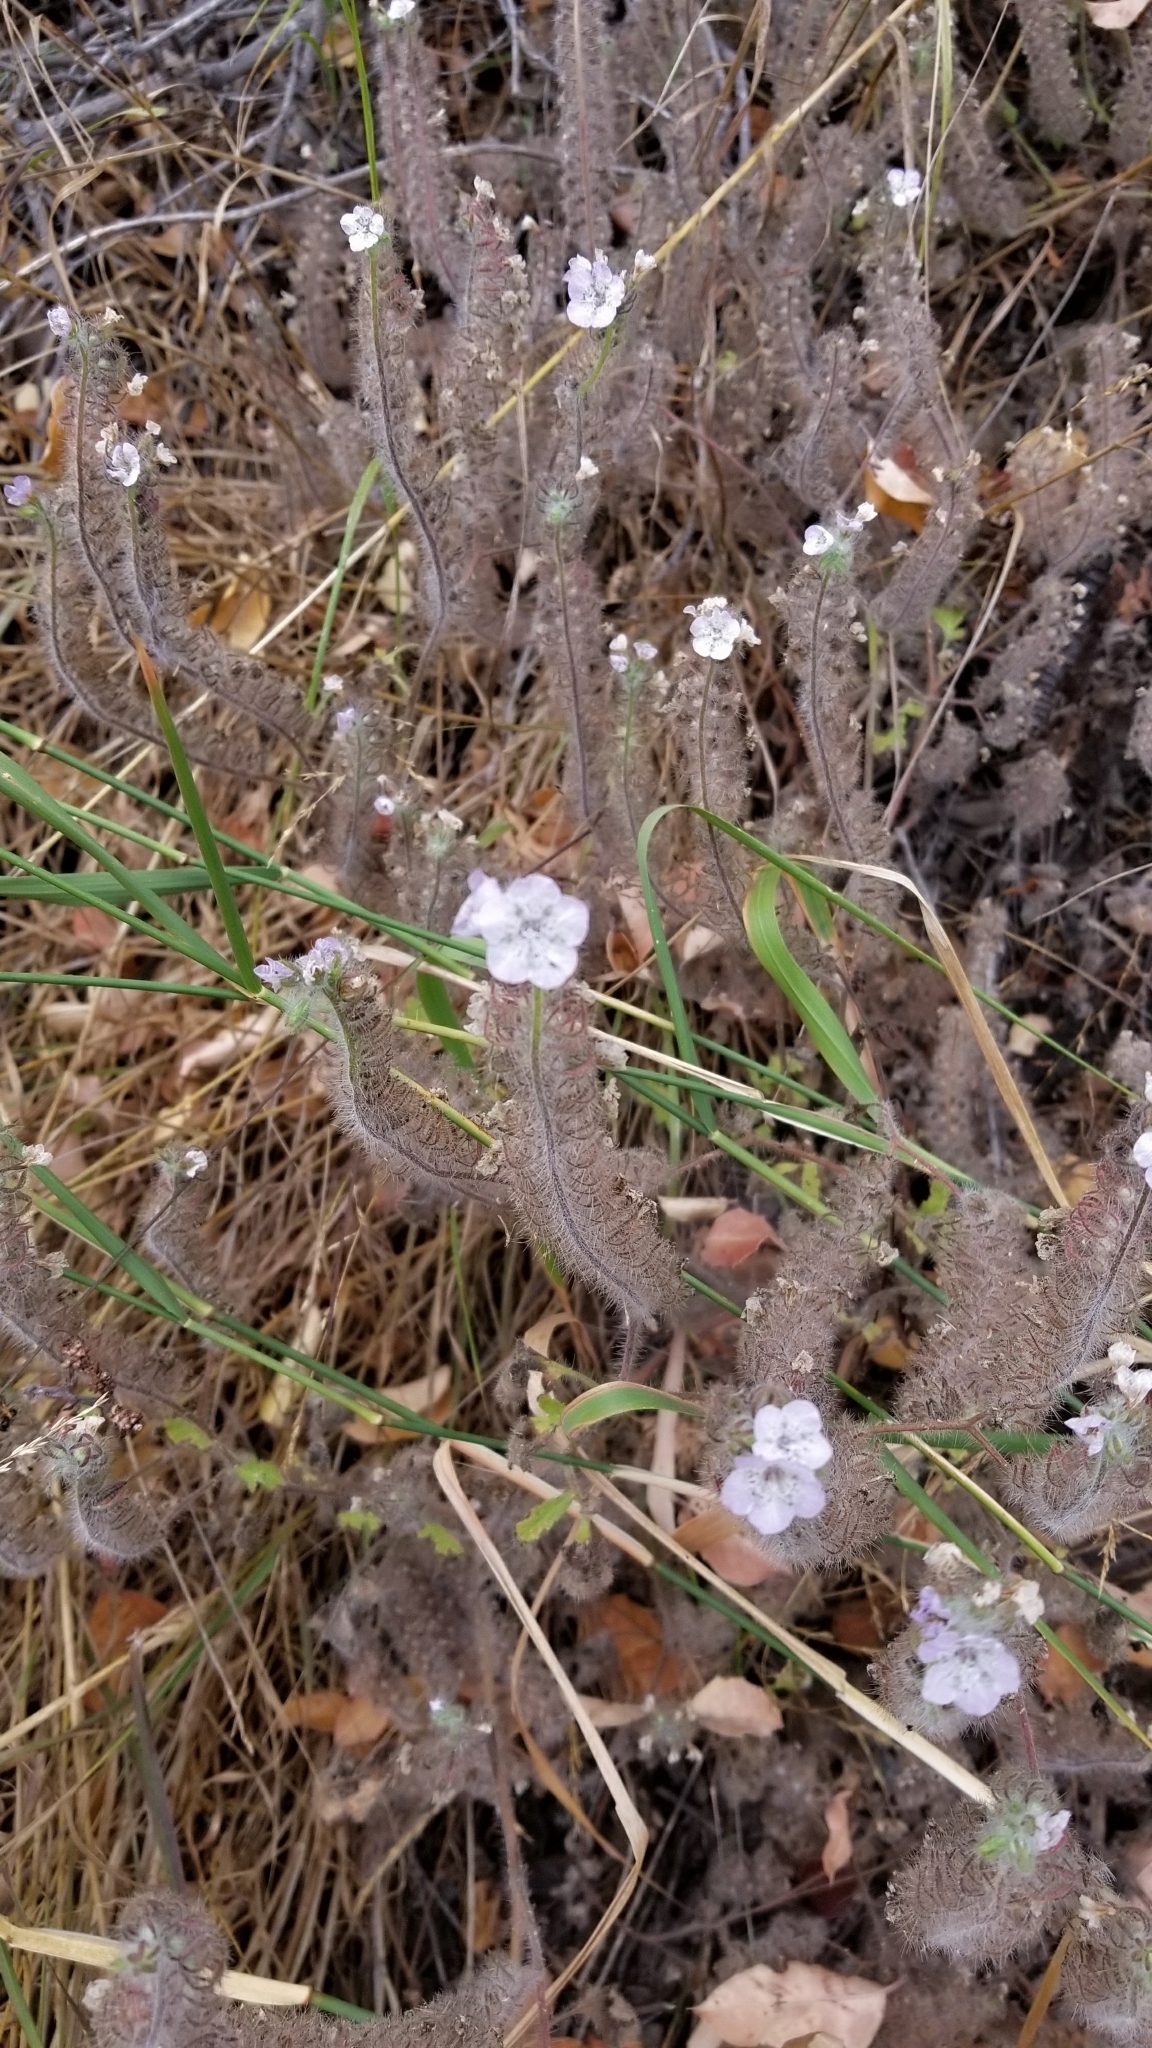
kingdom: Plantae
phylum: Tracheophyta
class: Magnoliopsida
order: Boraginales
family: Hydrophyllaceae
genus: Phacelia
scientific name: Phacelia cicutaria
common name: Caterpillar phacelia
